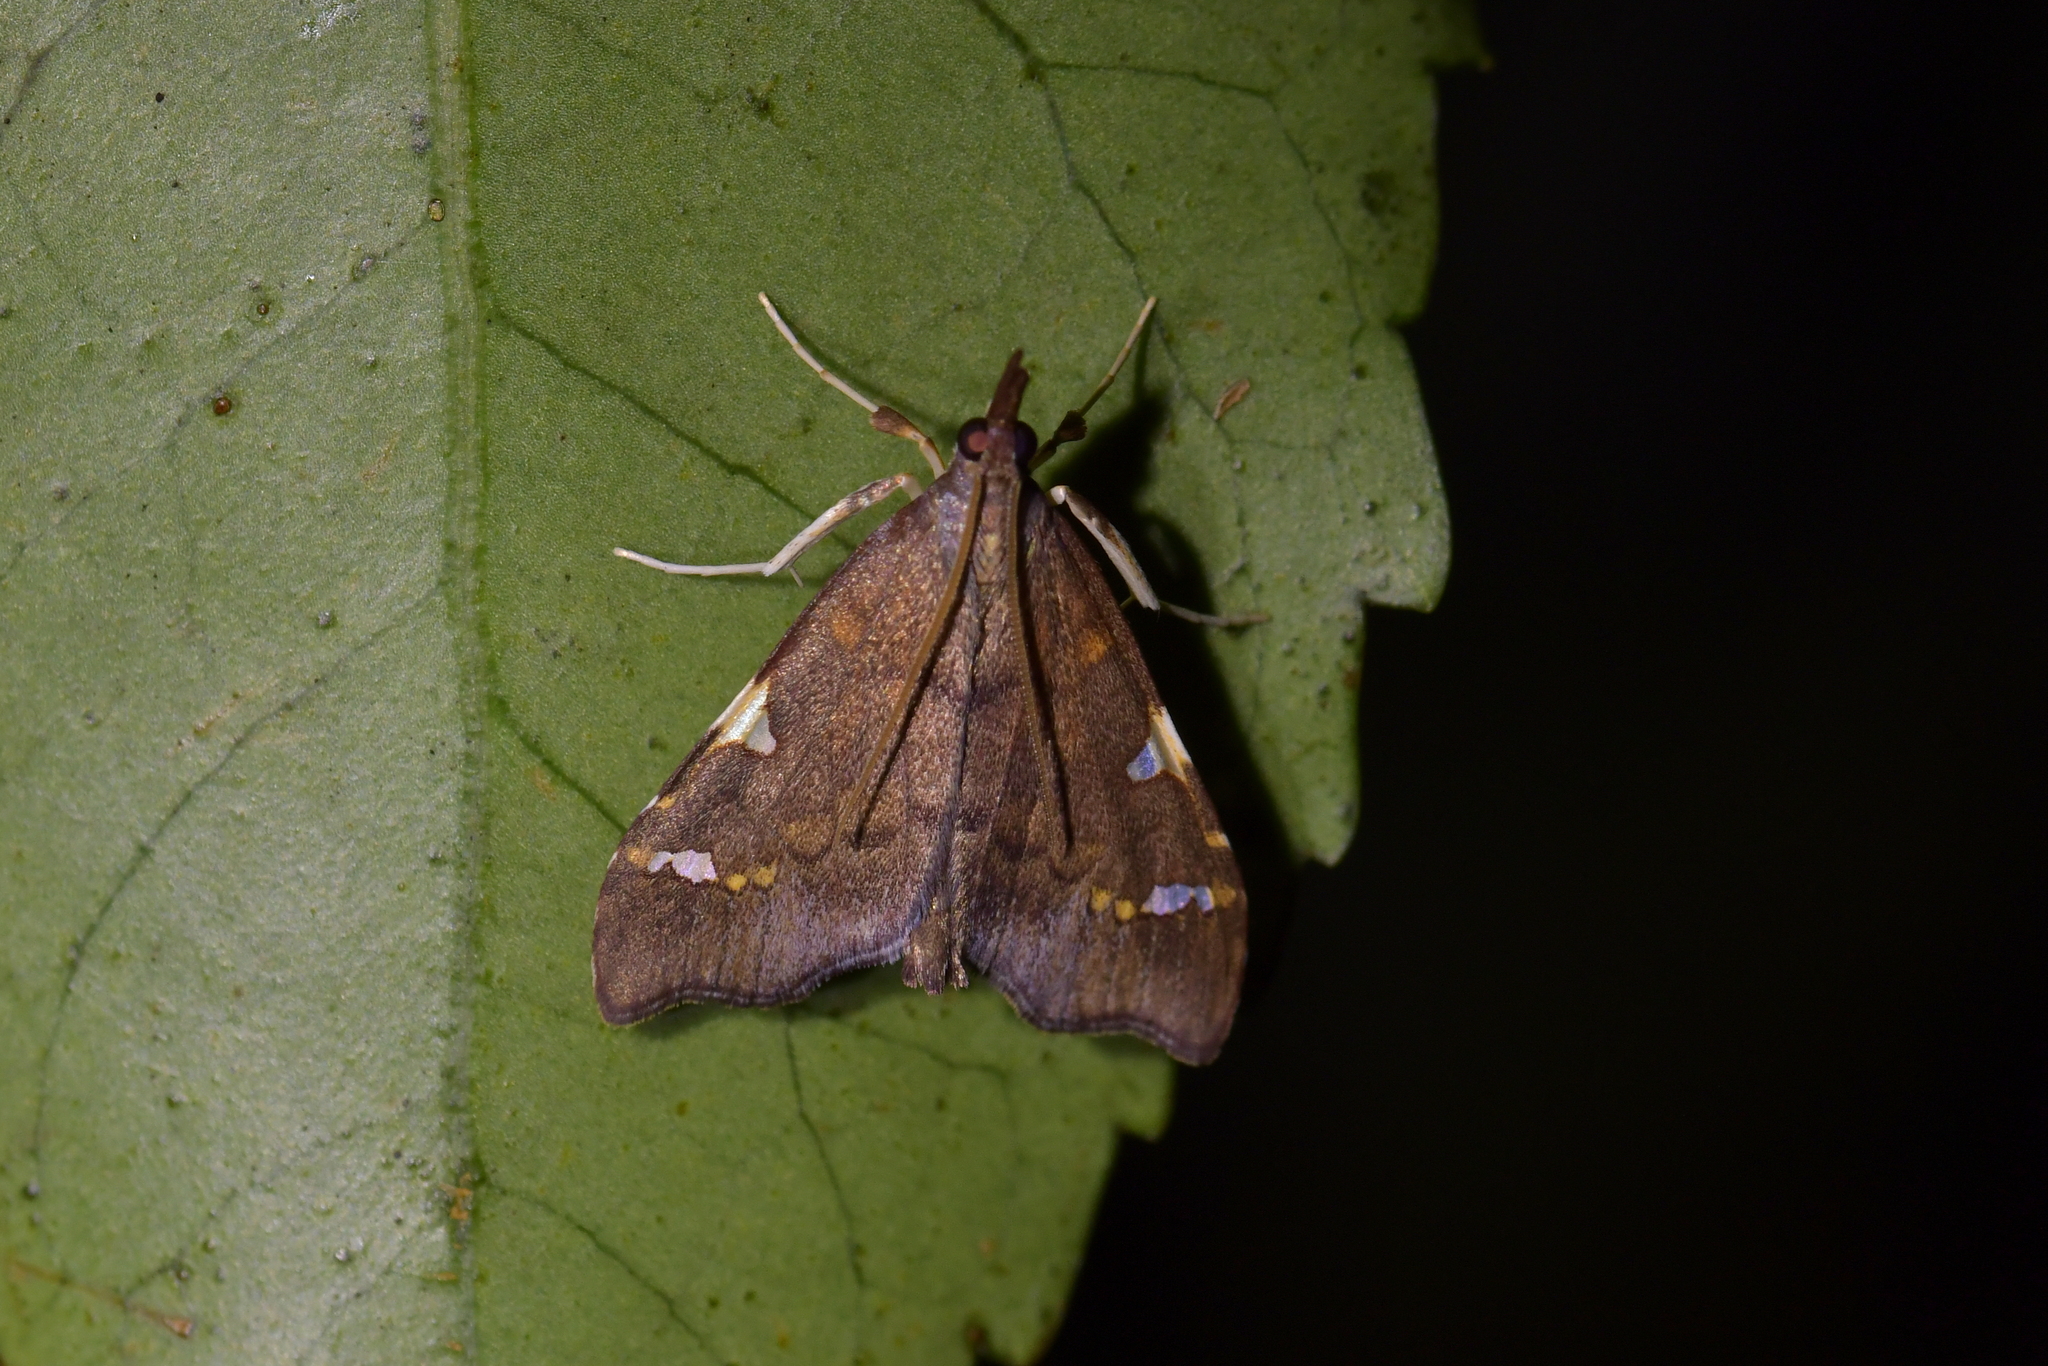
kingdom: Animalia
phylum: Arthropoda
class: Insecta
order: Lepidoptera
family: Crambidae
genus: Deana
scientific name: Deana hybreasalis
